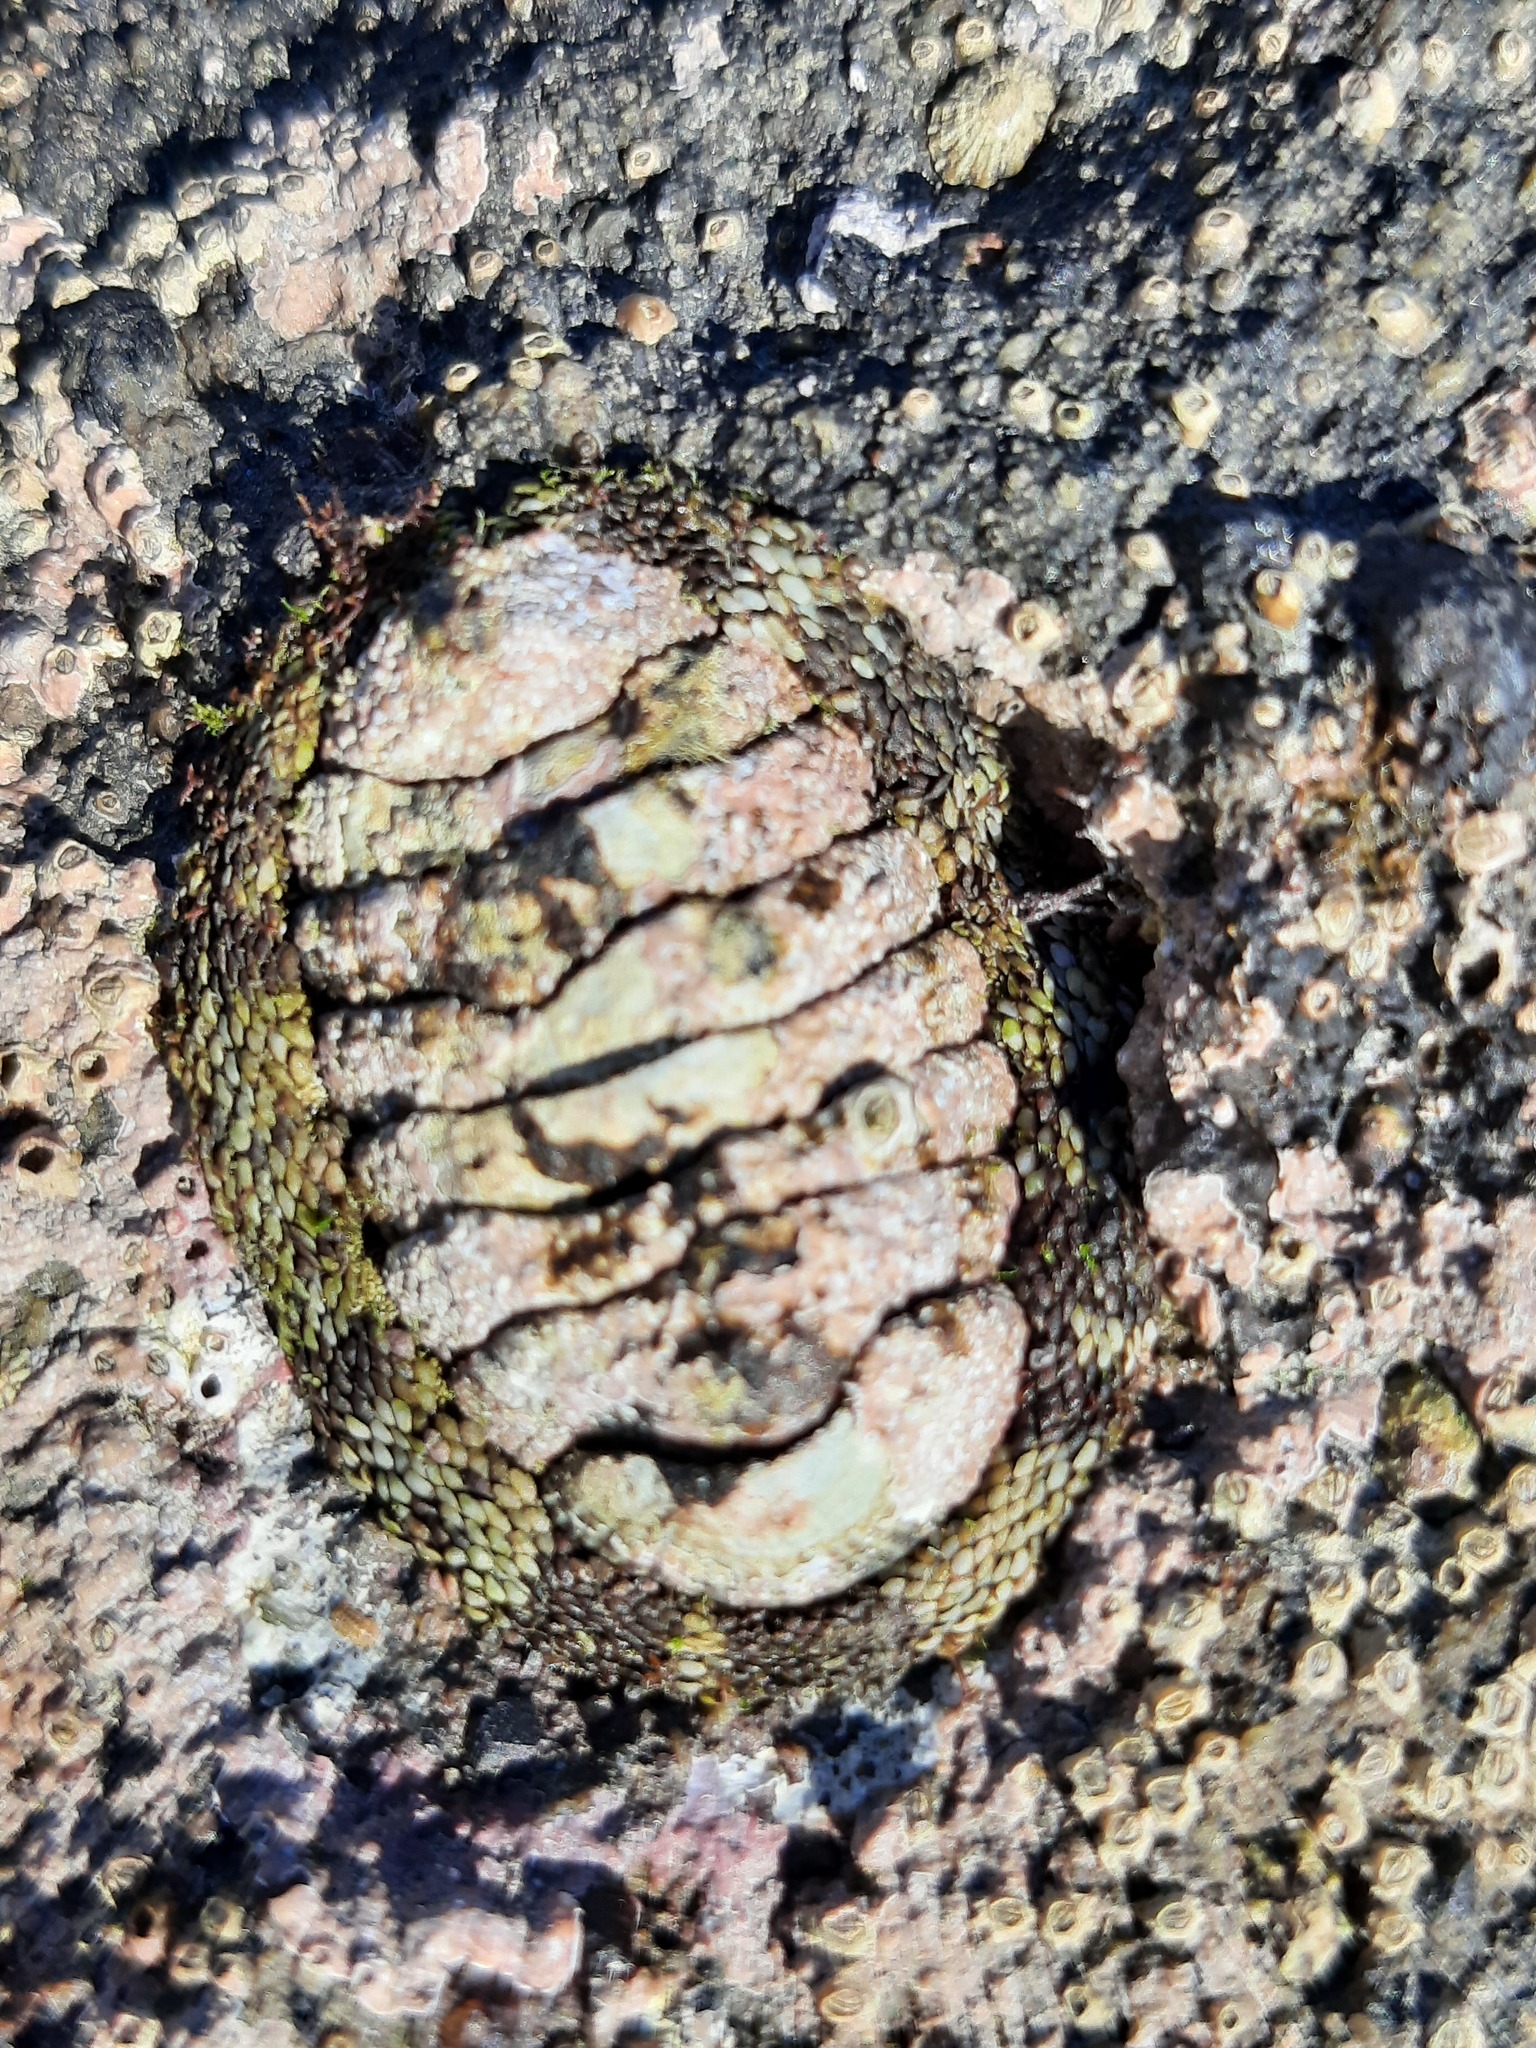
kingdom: Animalia
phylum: Mollusca
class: Polyplacophora
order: Chitonida
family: Chitonidae
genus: Sypharochiton
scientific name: Sypharochiton pelliserpentis
